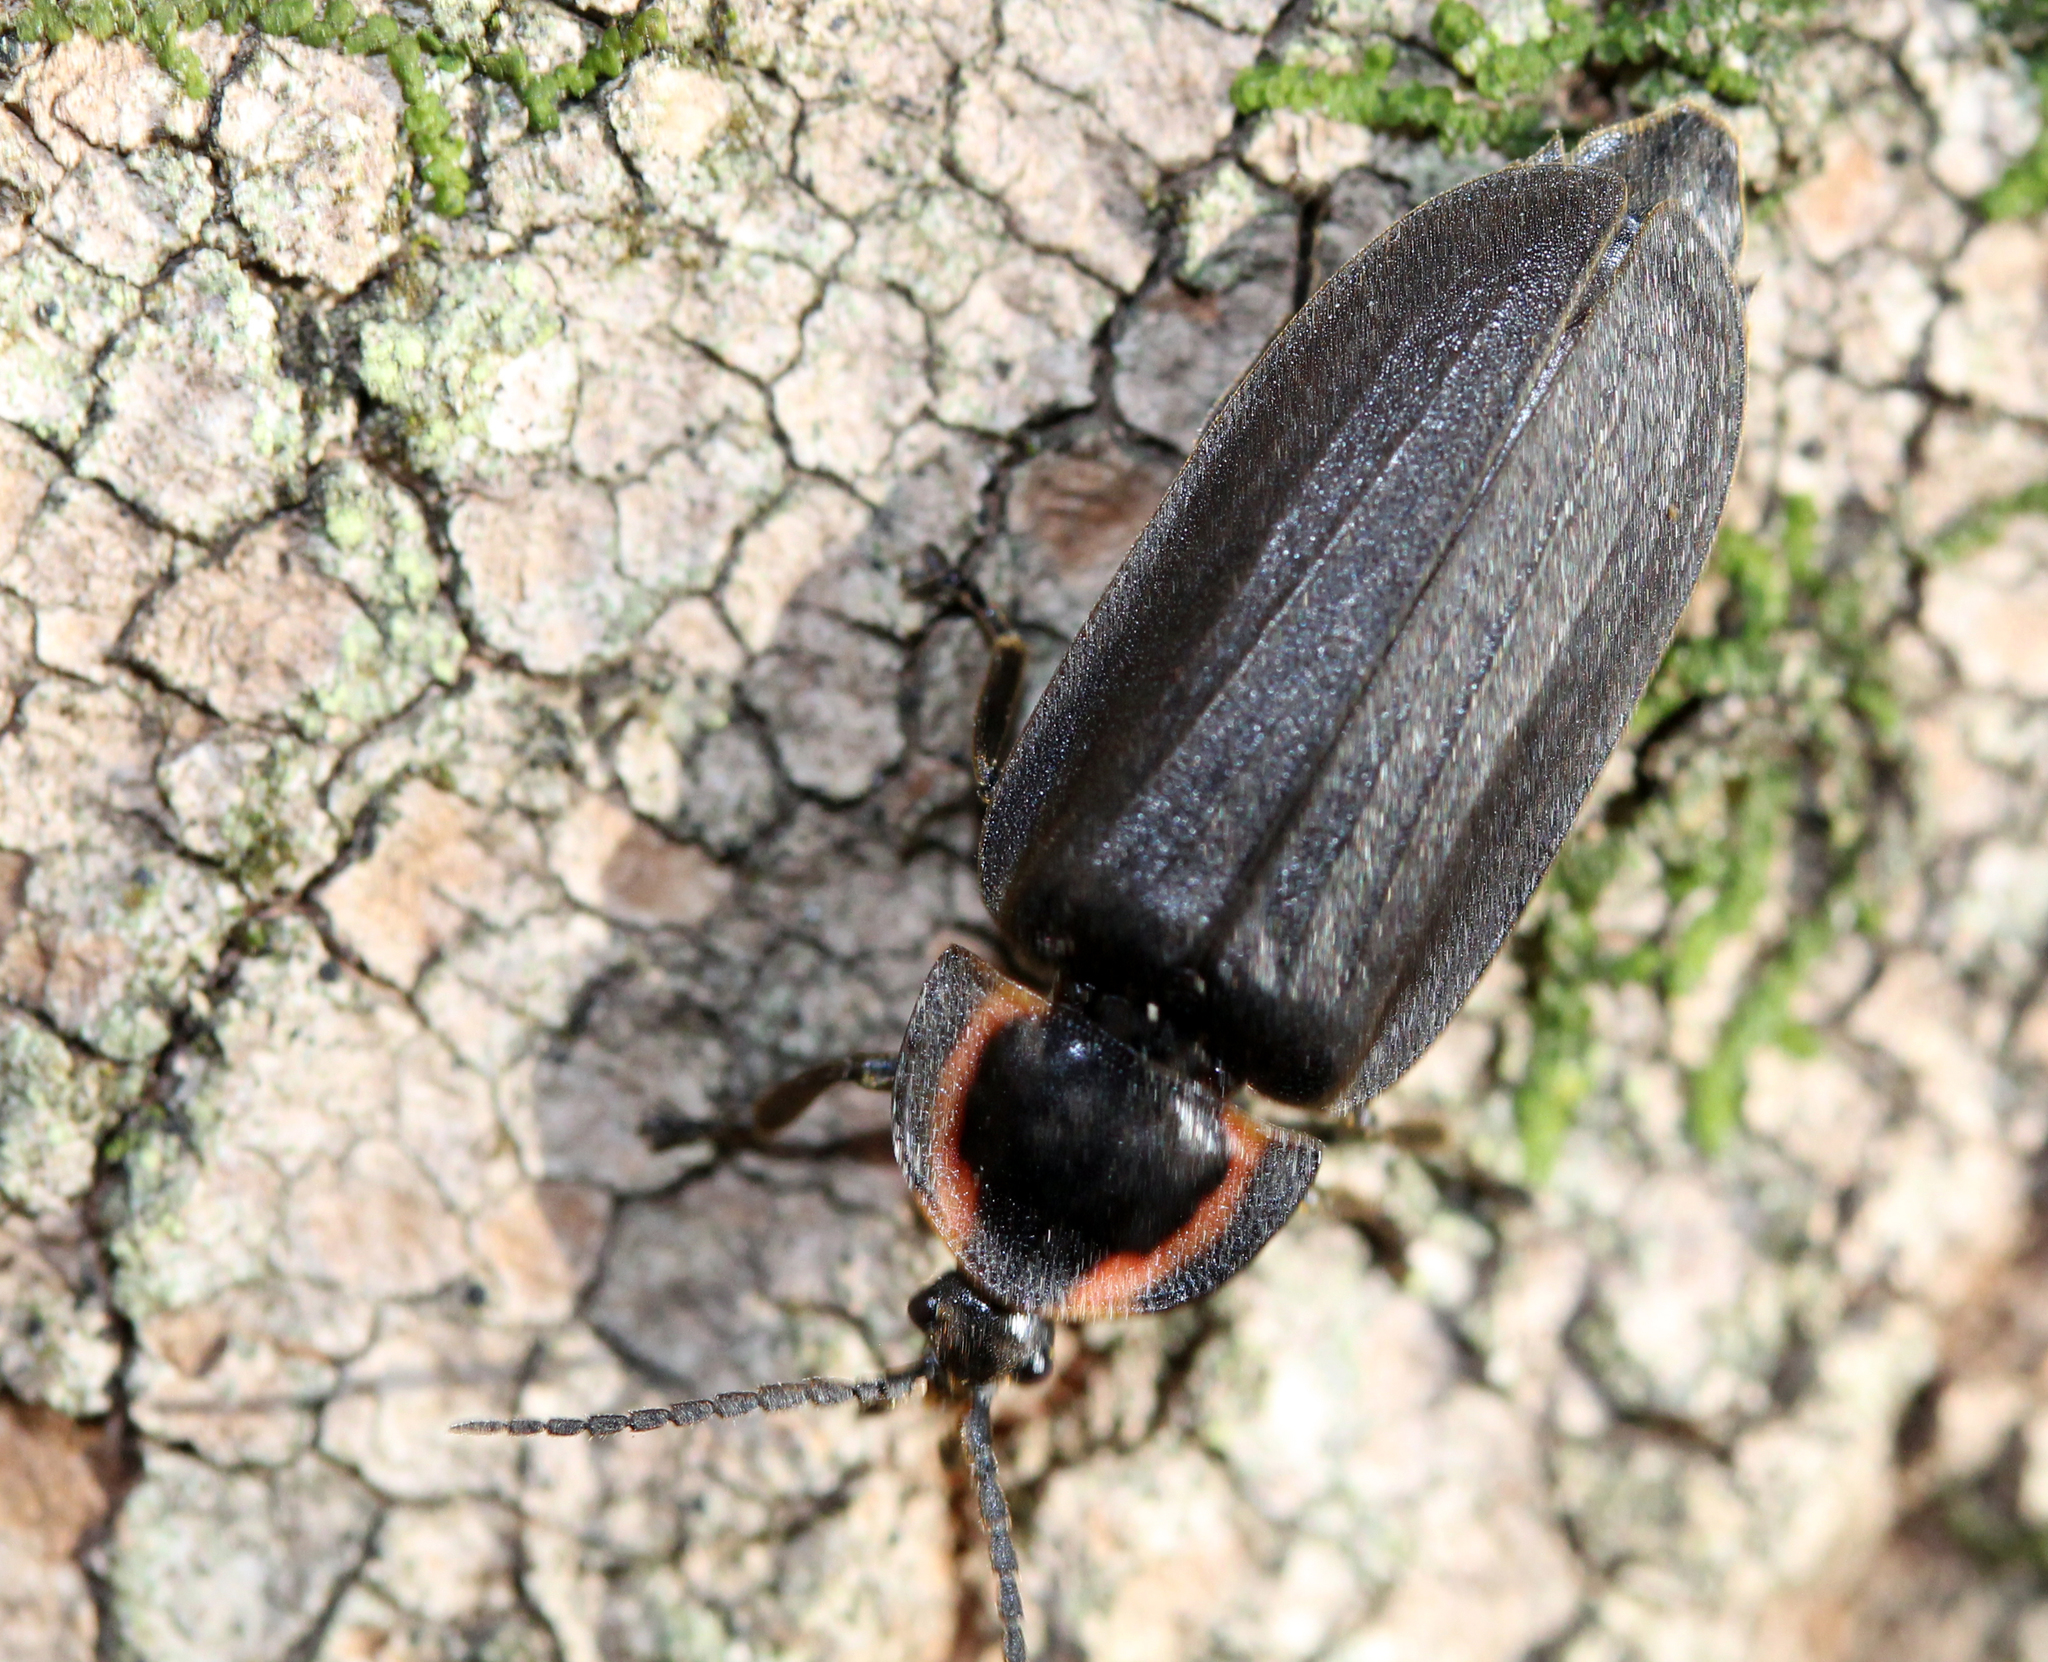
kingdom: Animalia
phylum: Arthropoda
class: Insecta
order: Coleoptera
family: Lampyridae
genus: Photinus
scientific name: Photinus corrusca
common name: Winter firefly
